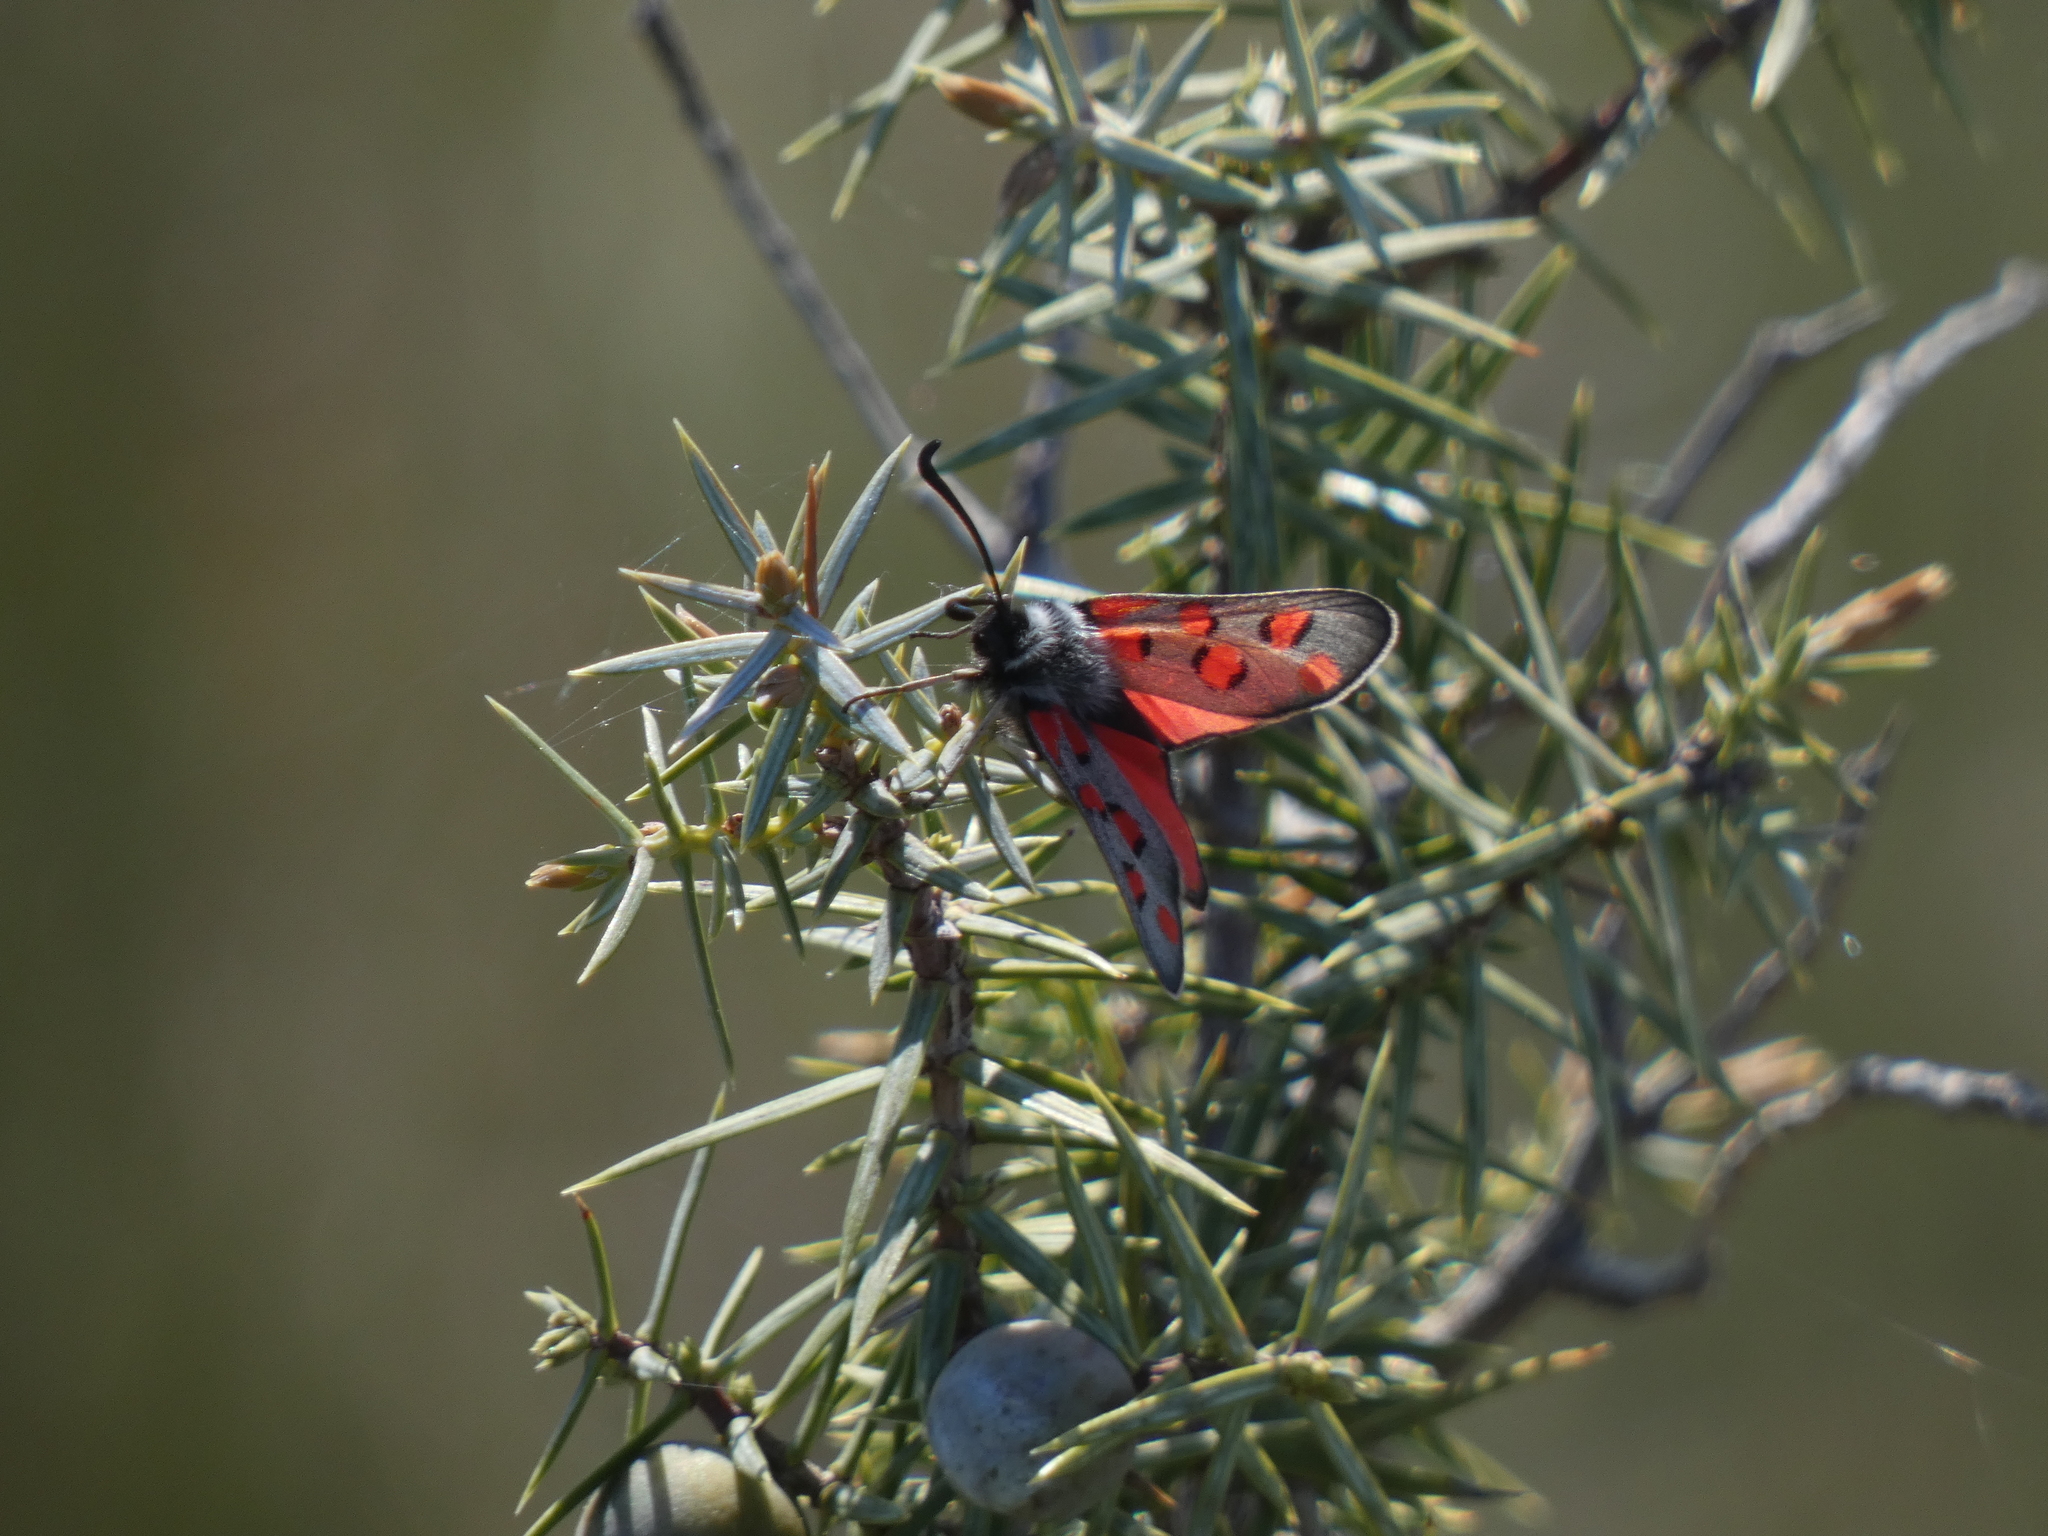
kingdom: Animalia
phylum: Arthropoda
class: Insecta
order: Lepidoptera
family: Zygaenidae
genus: Zygaena
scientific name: Zygaena rhadamanthus
